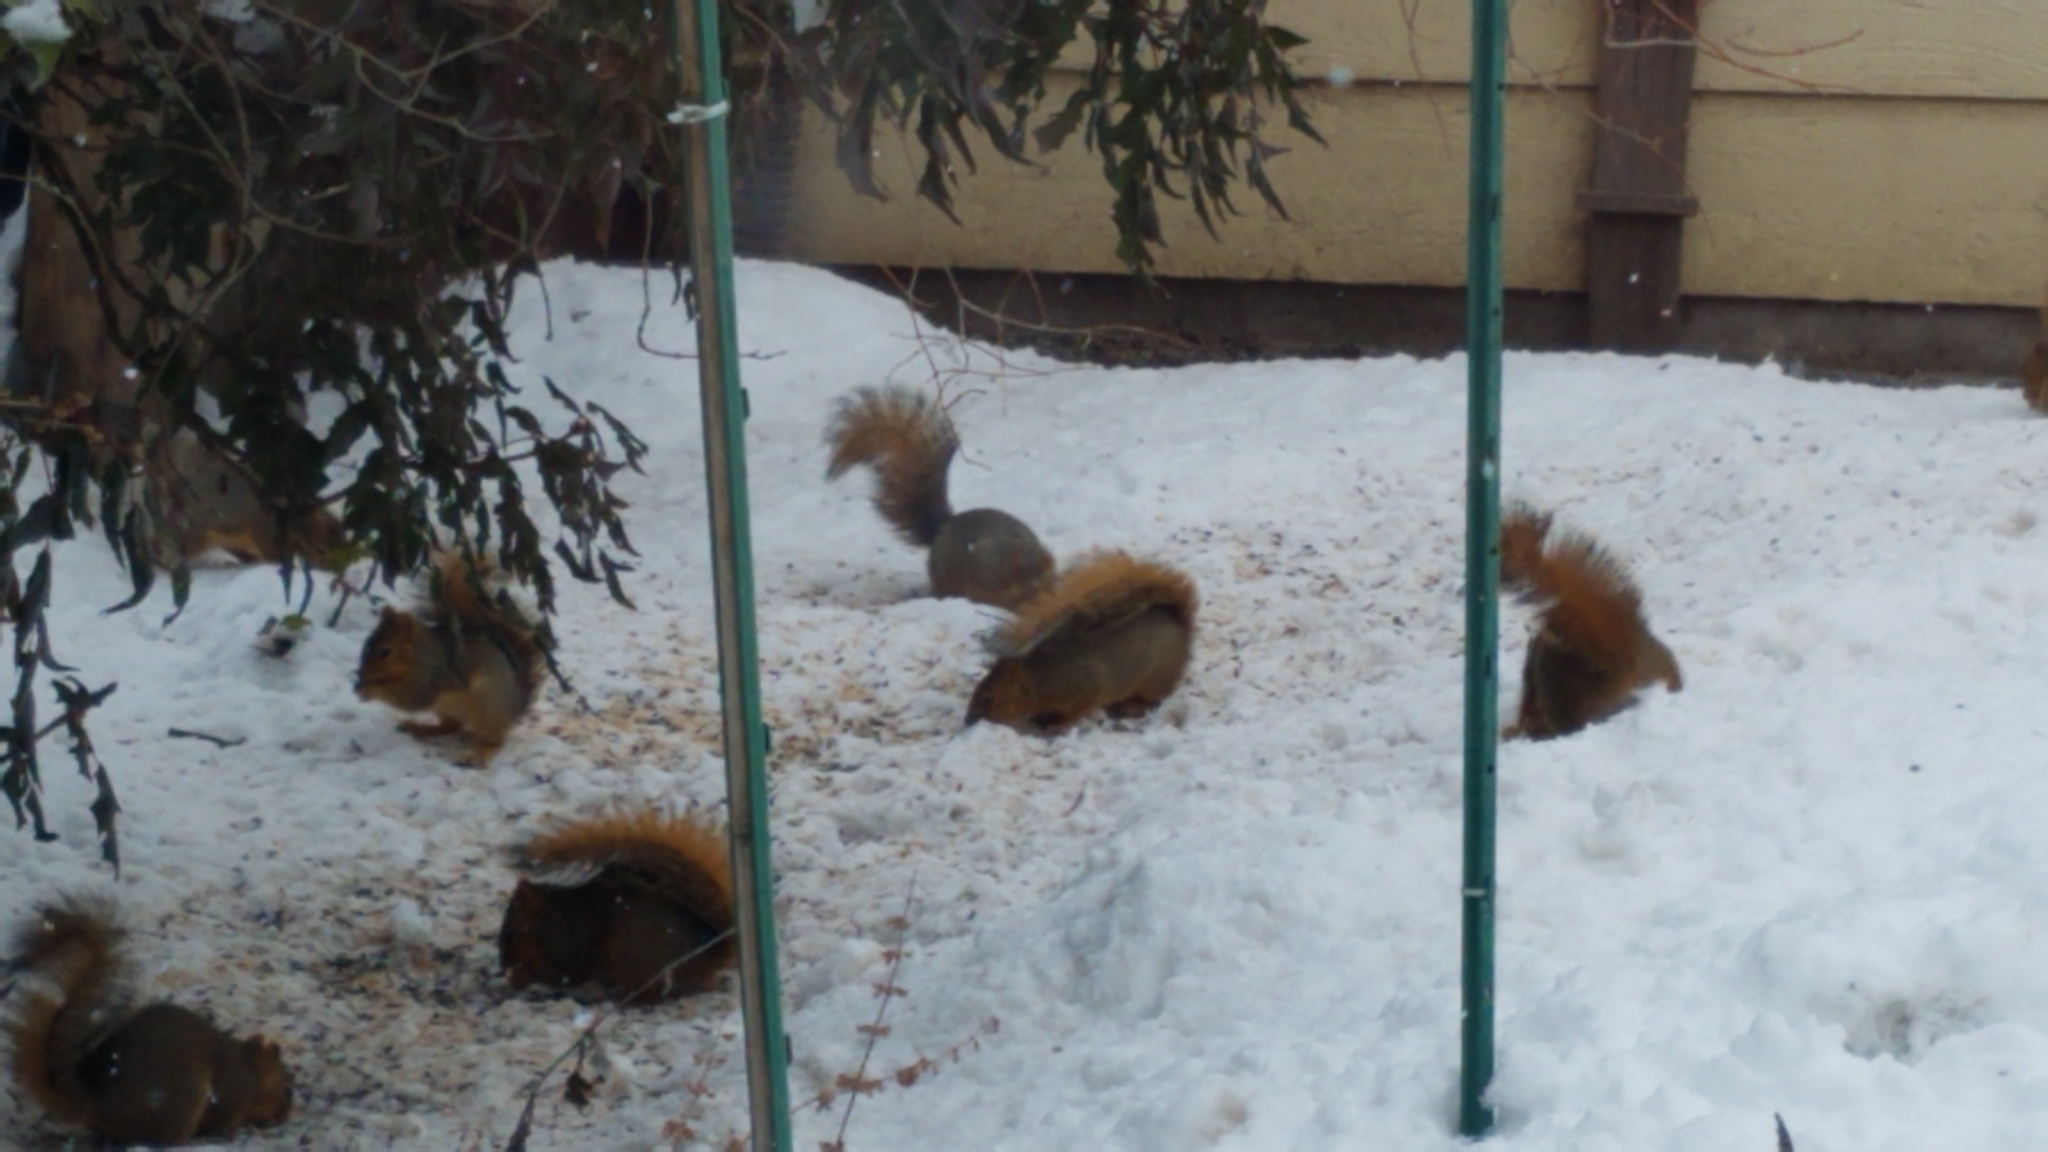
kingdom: Animalia
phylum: Chordata
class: Mammalia
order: Rodentia
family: Sciuridae
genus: Sciurus
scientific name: Sciurus niger
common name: Fox squirrel
